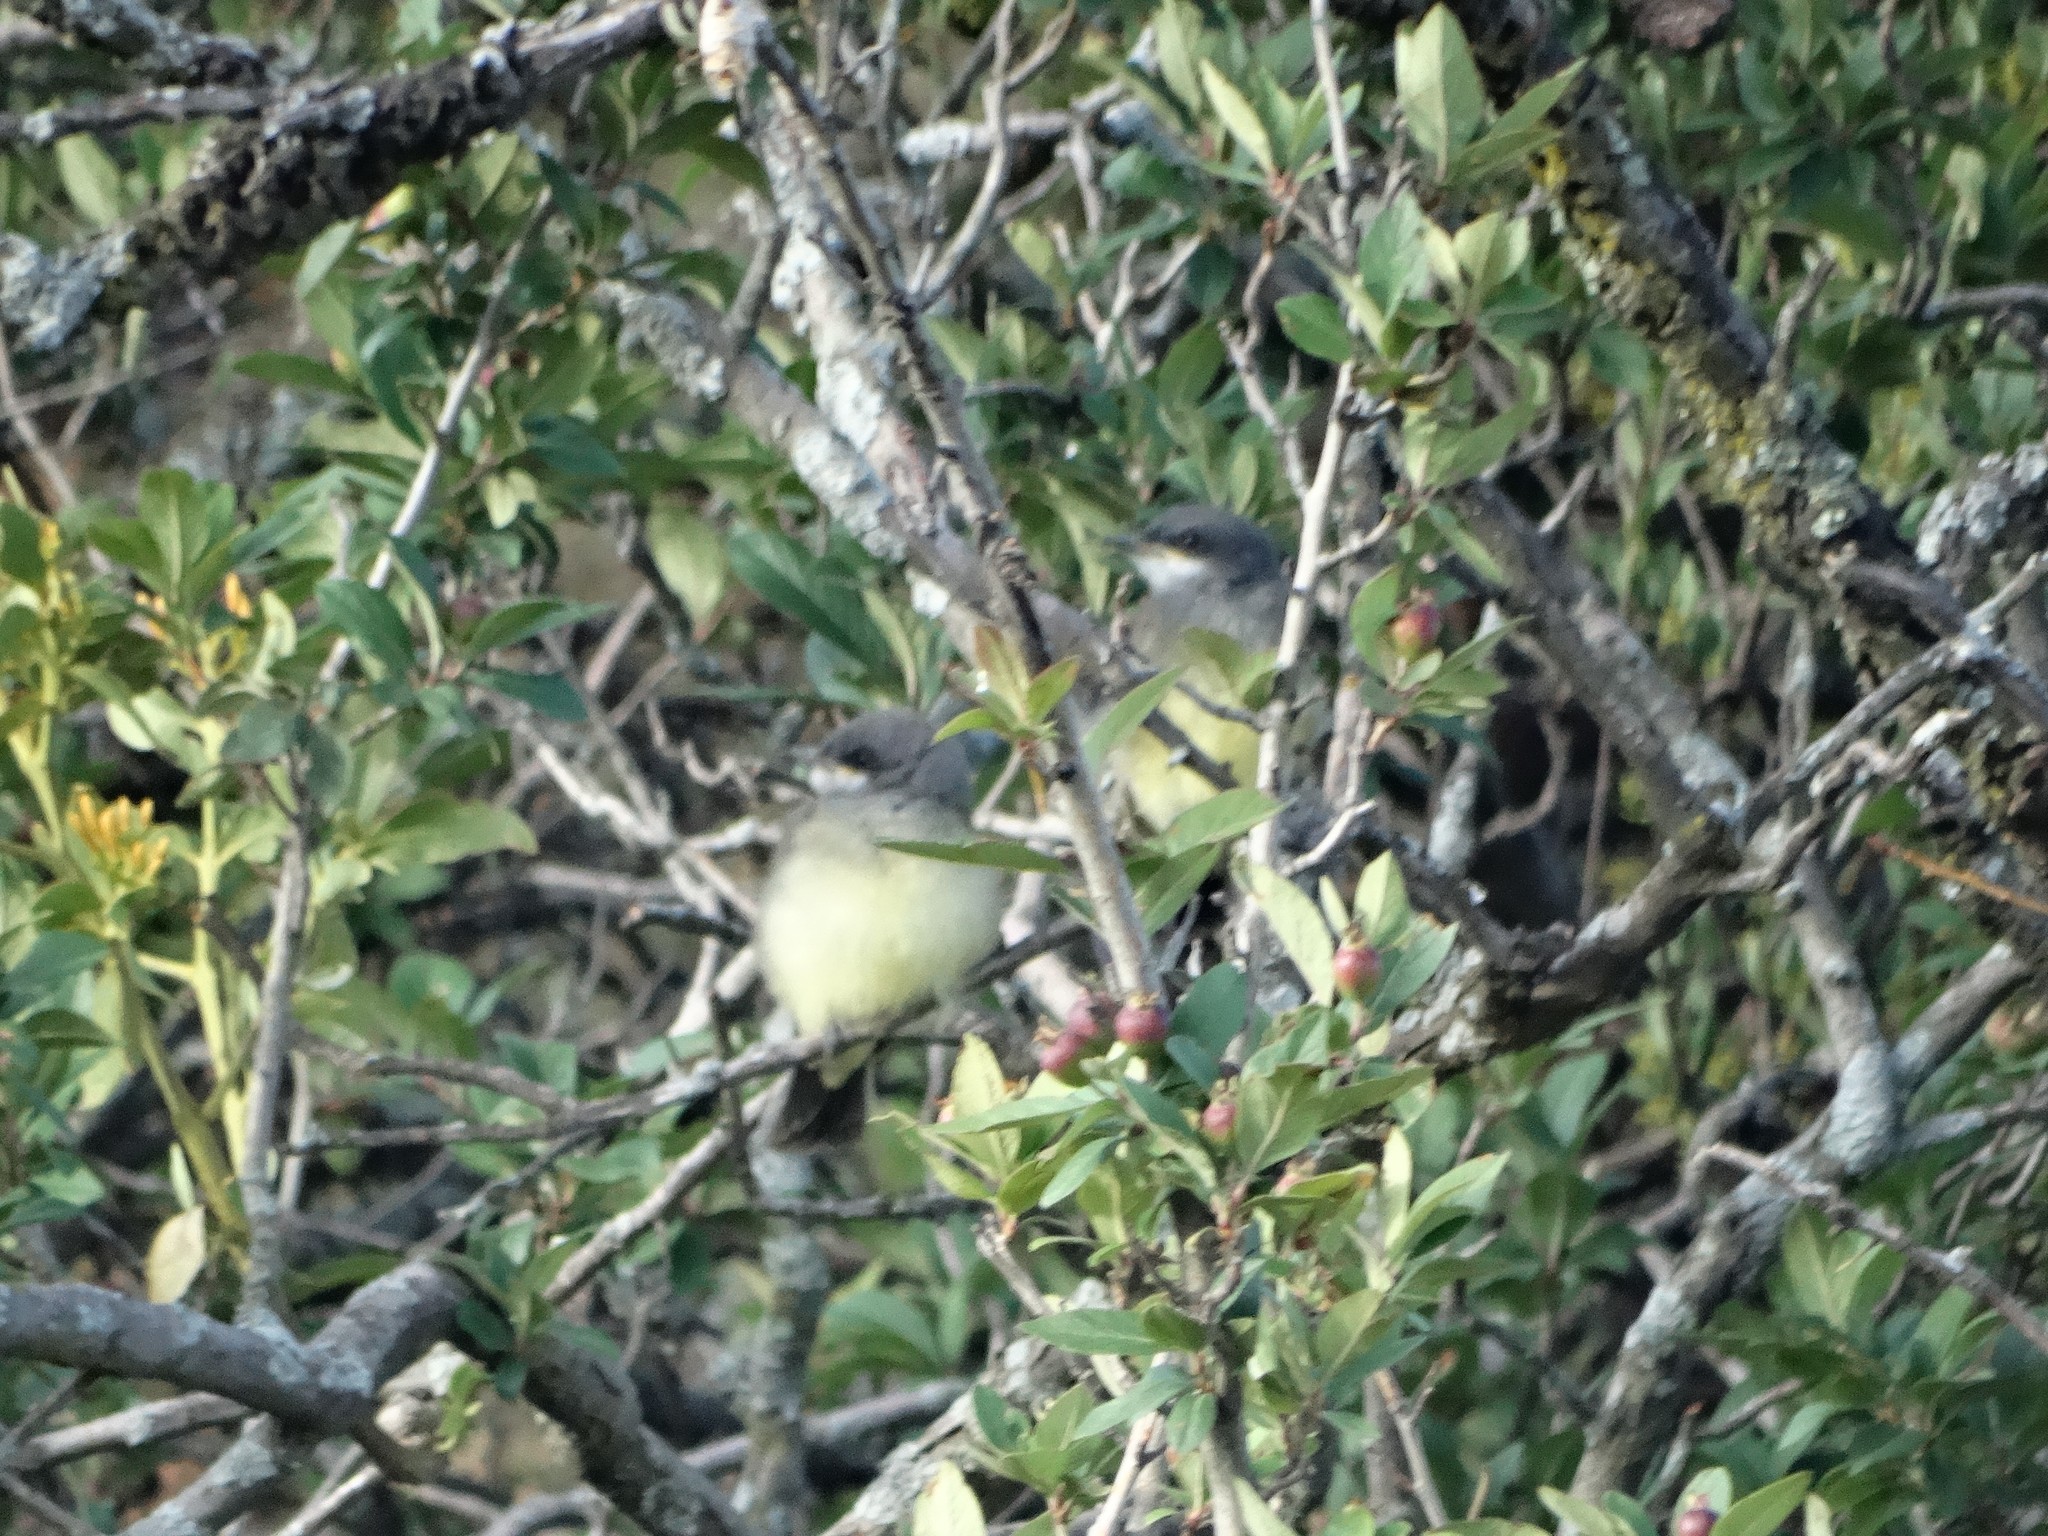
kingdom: Animalia
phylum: Chordata
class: Aves
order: Passeriformes
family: Tyrannidae
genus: Tyrannus
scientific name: Tyrannus vociferans
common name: Cassin's kingbird
